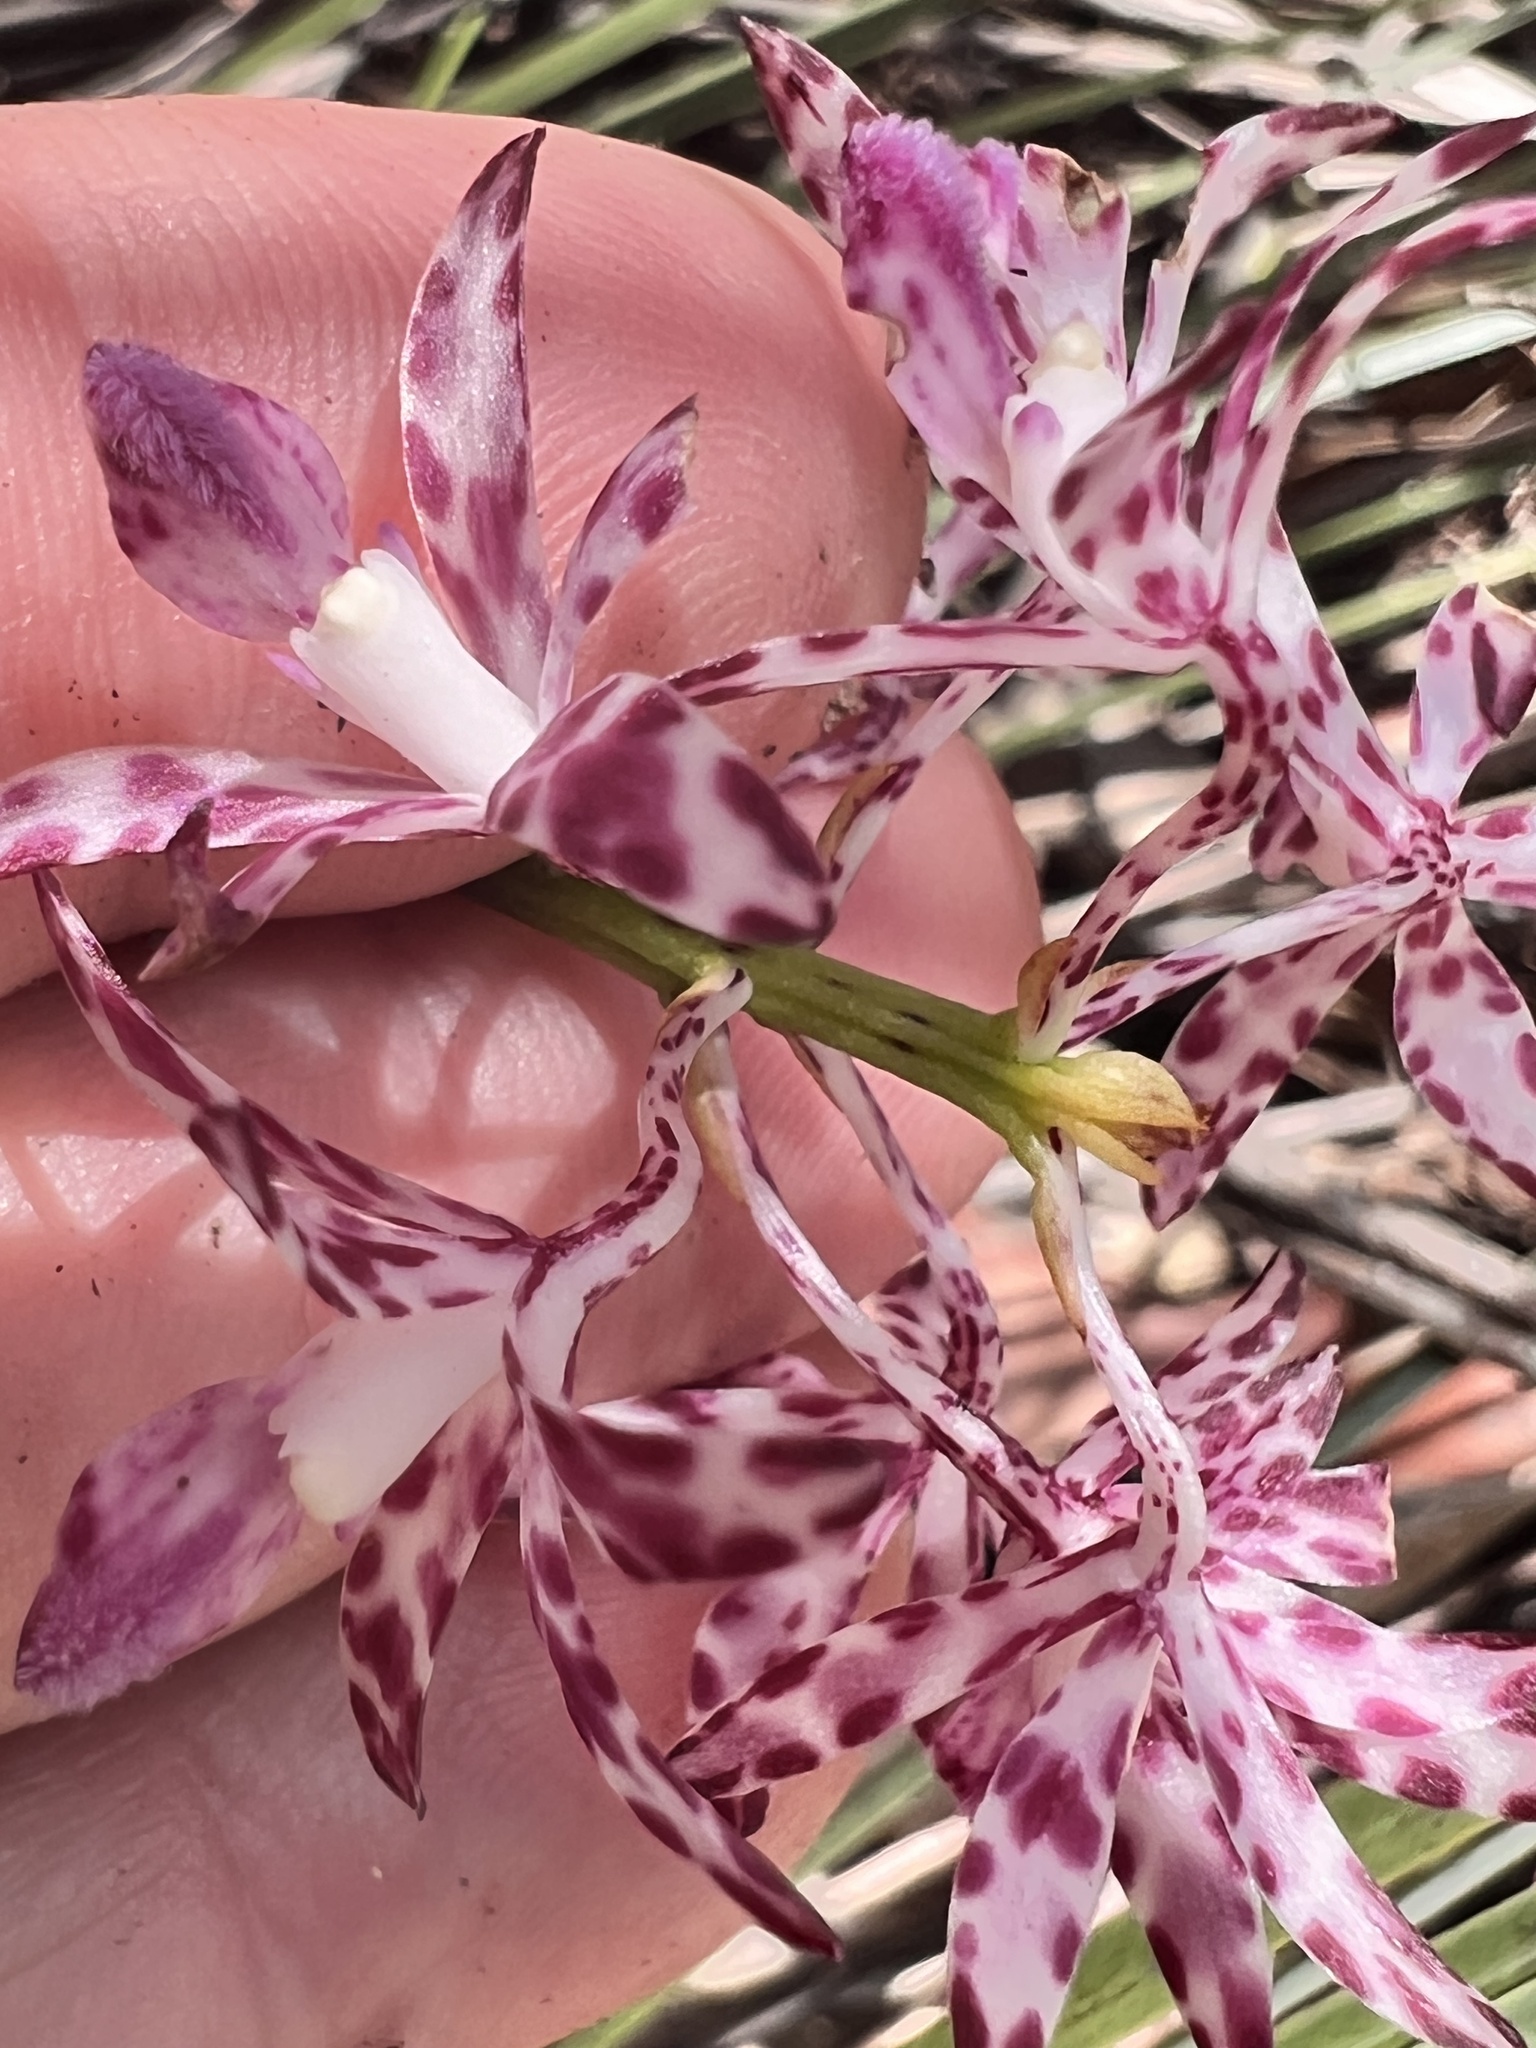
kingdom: Plantae
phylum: Tracheophyta
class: Liliopsida
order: Asparagales
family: Orchidaceae
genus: Dipodium
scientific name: Dipodium variegatum
